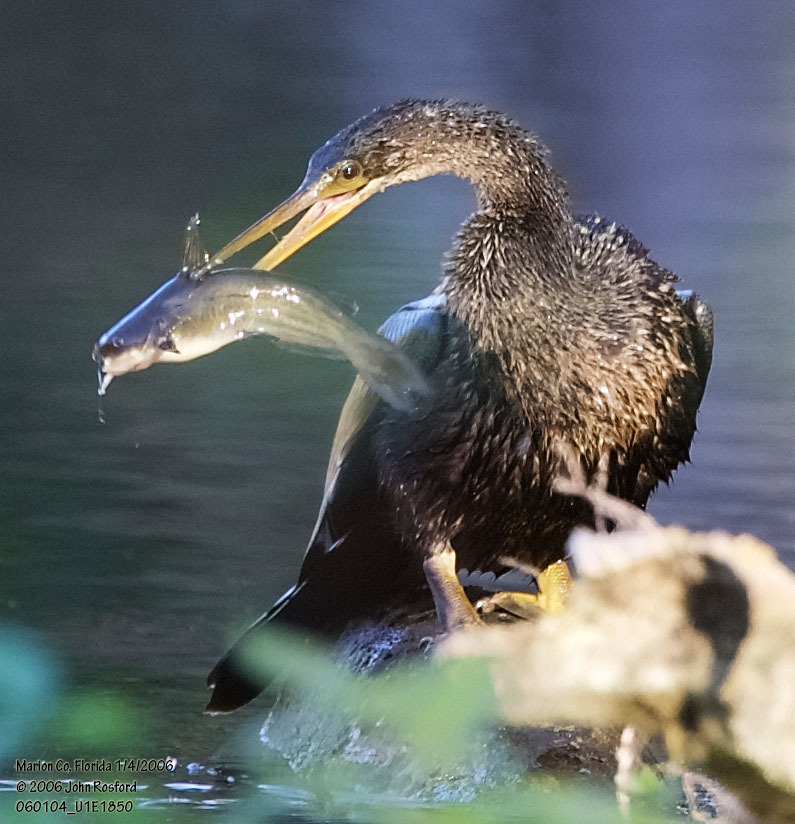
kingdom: Animalia
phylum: Chordata
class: Aves
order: Suliformes
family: Anhingidae
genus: Anhinga
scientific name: Anhinga anhinga
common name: Anhinga
